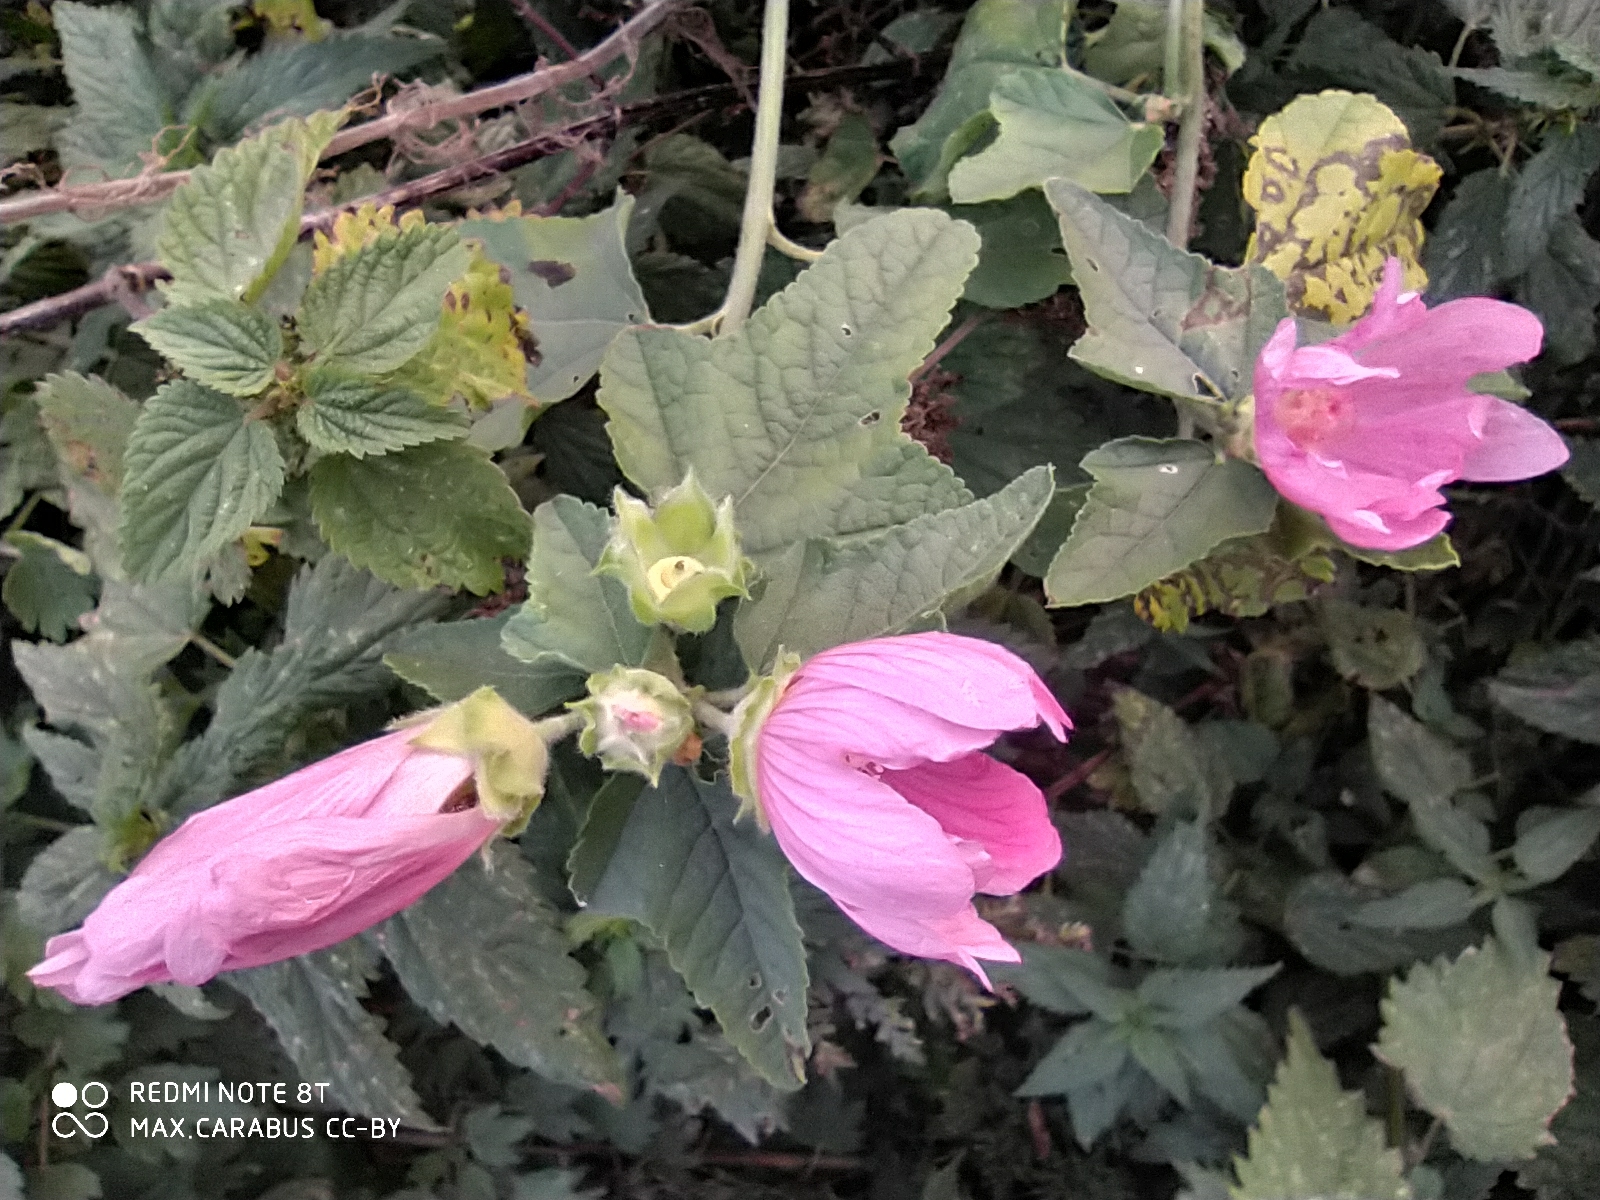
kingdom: Plantae
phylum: Tracheophyta
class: Magnoliopsida
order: Malvales
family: Malvaceae
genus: Malva
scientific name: Malva thuringiaca
